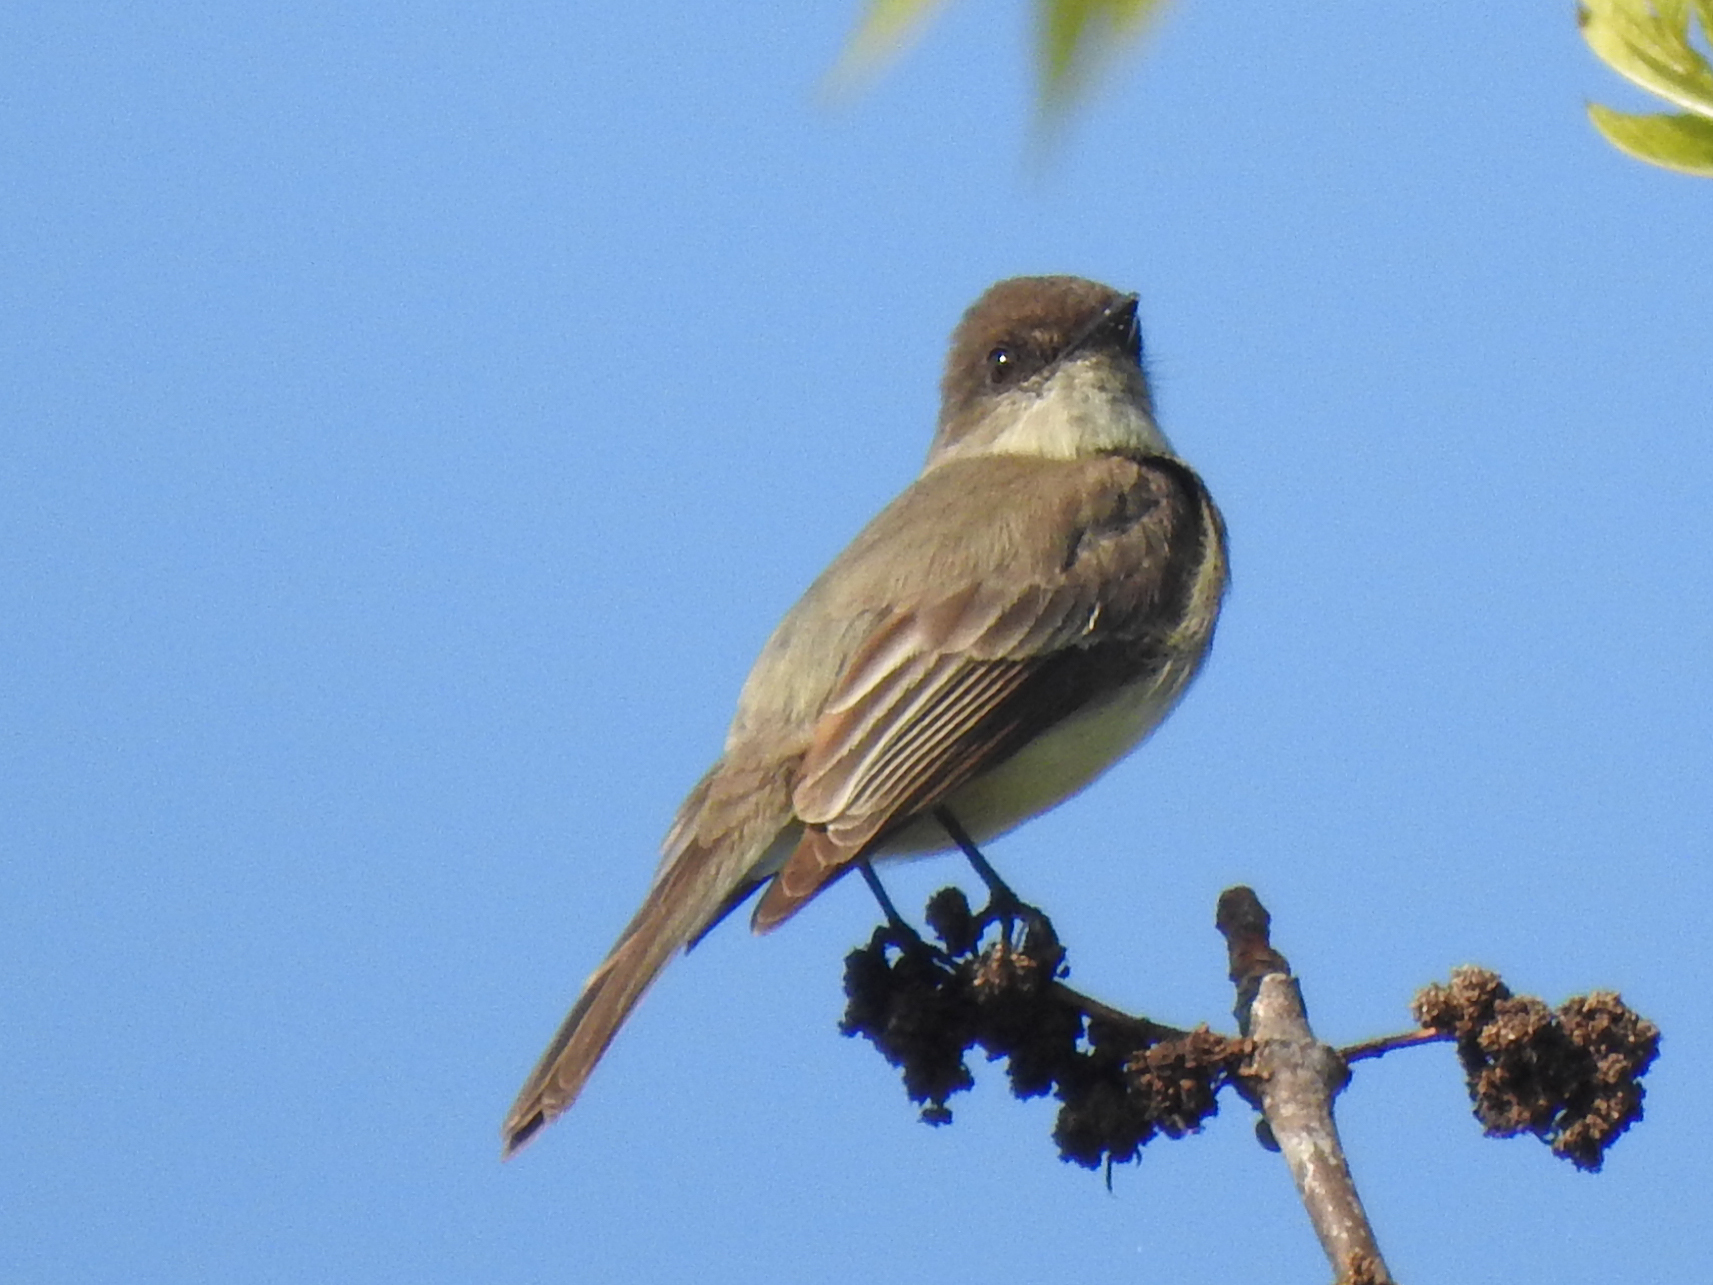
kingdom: Animalia
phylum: Chordata
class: Aves
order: Passeriformes
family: Tyrannidae
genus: Sayornis
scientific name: Sayornis phoebe
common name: Eastern phoebe
